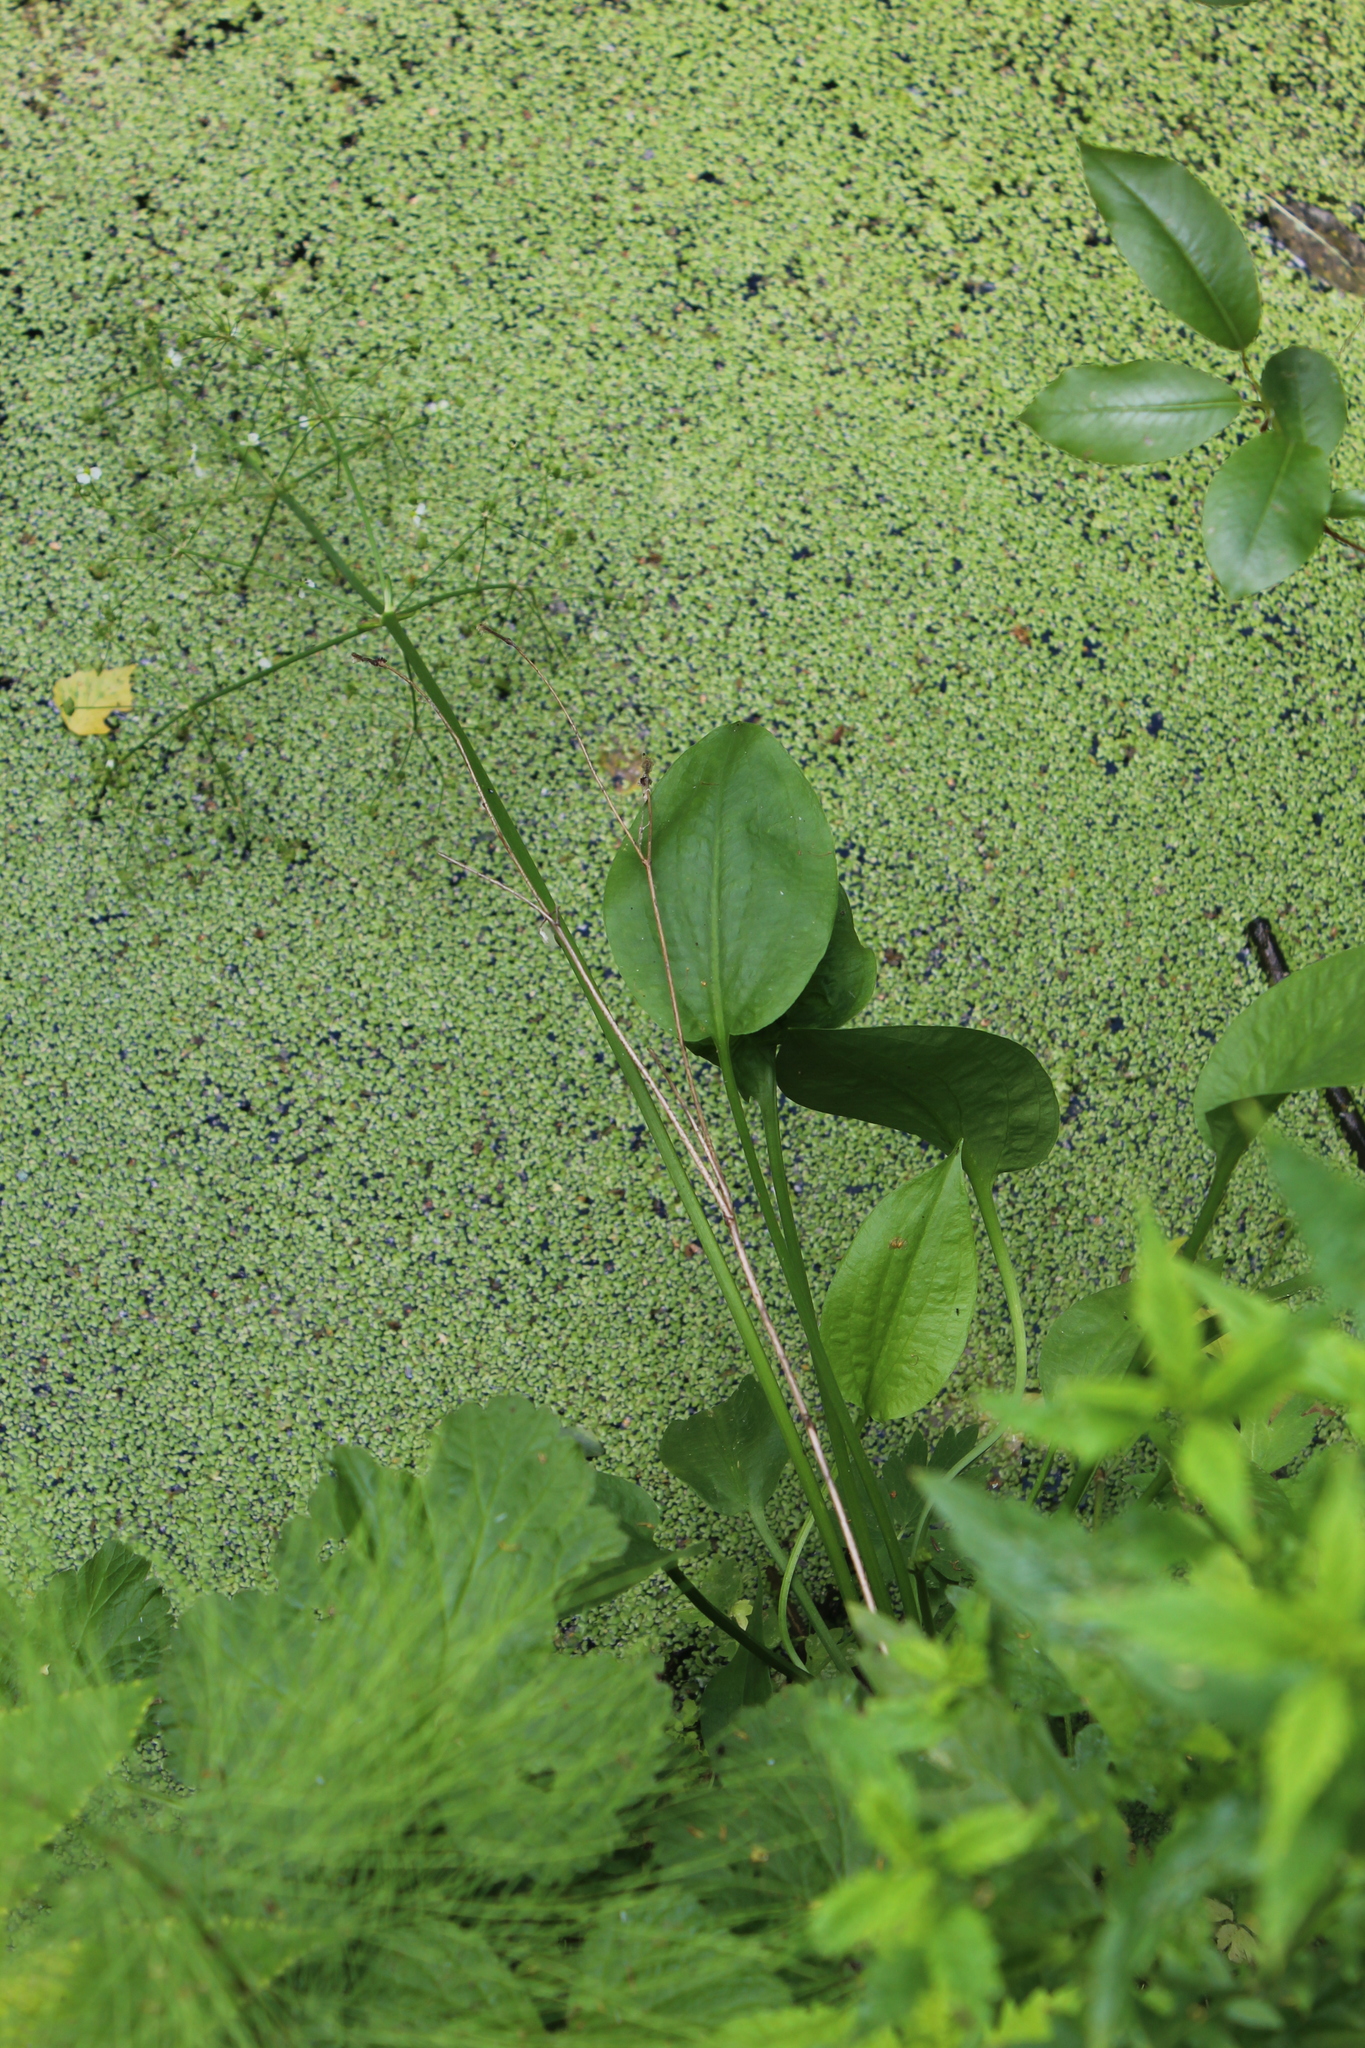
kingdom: Plantae
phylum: Tracheophyta
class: Liliopsida
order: Alismatales
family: Alismataceae
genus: Alisma
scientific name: Alisma plantago-aquatica
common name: Water-plantain
